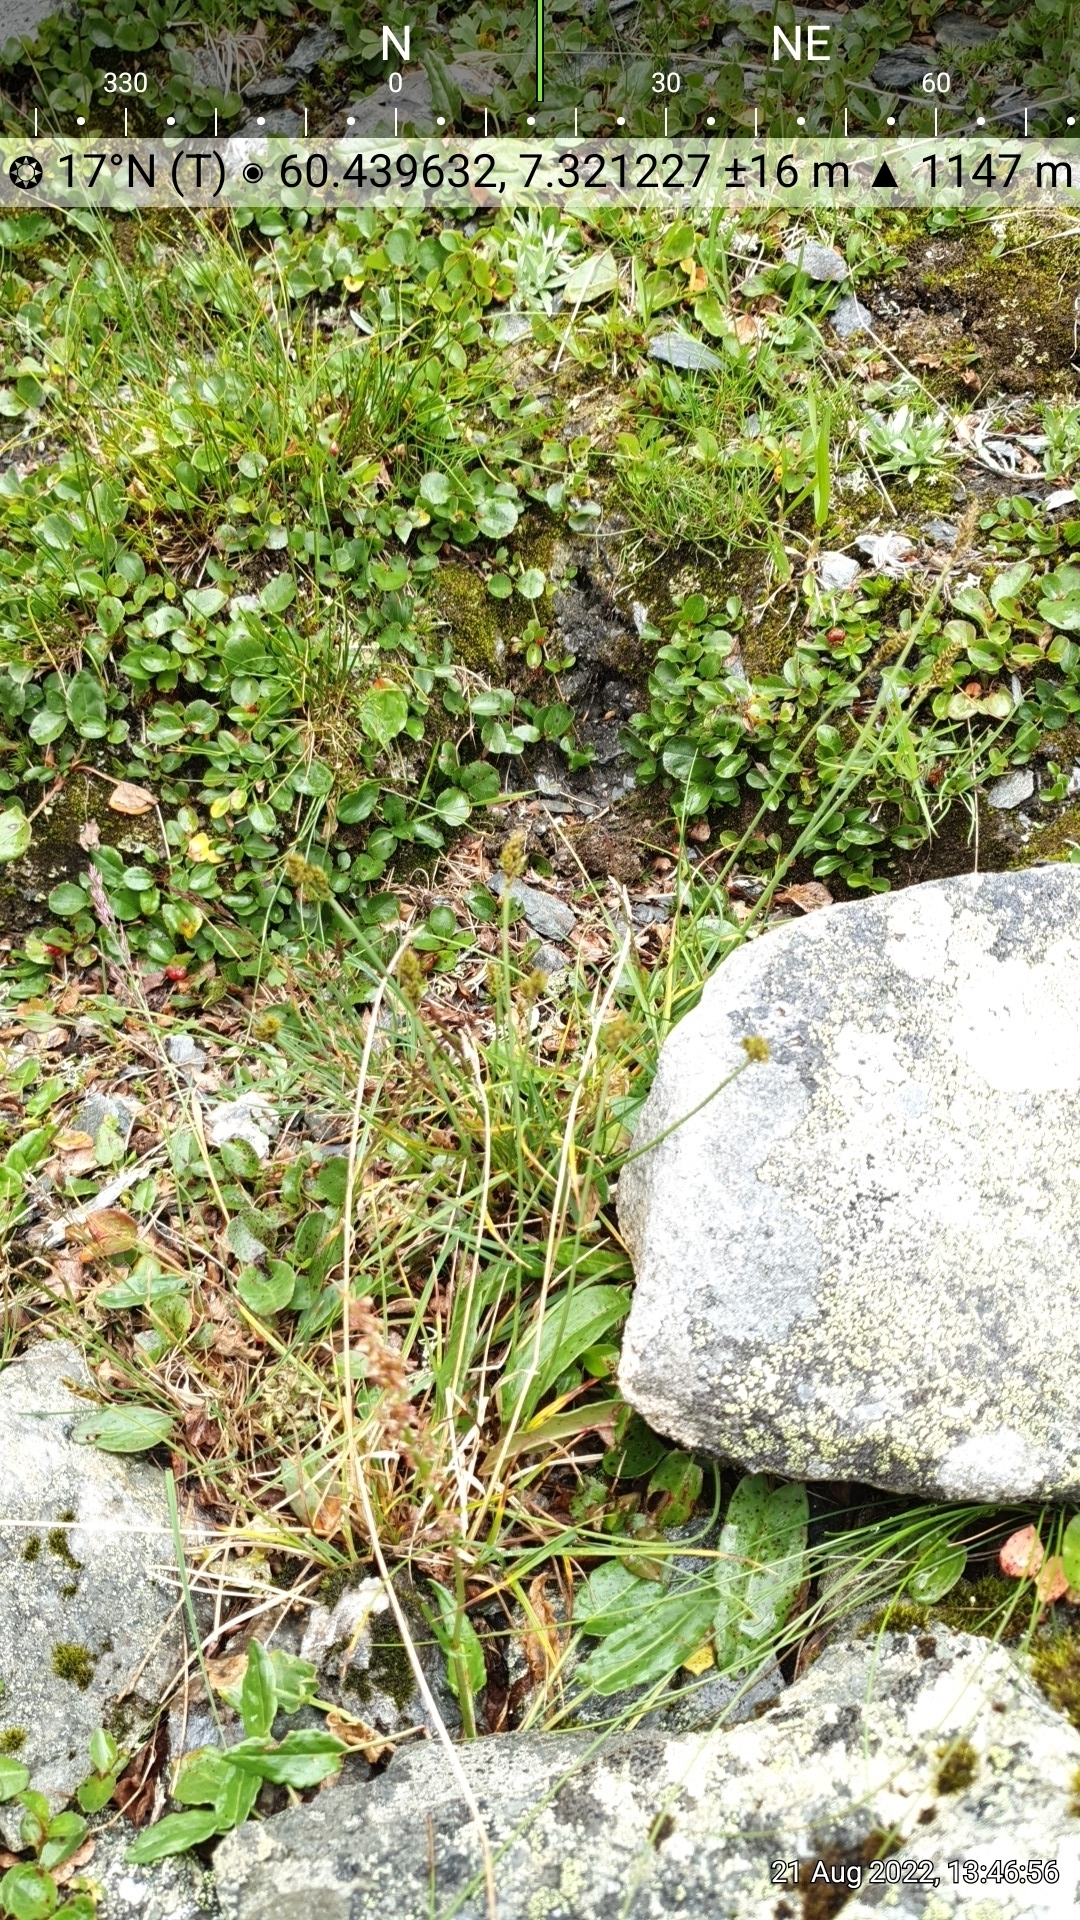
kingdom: Plantae
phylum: Tracheophyta
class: Liliopsida
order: Poales
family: Cyperaceae
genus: Carex
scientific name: Carex lachenalii
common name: Hare's-foot sedge
